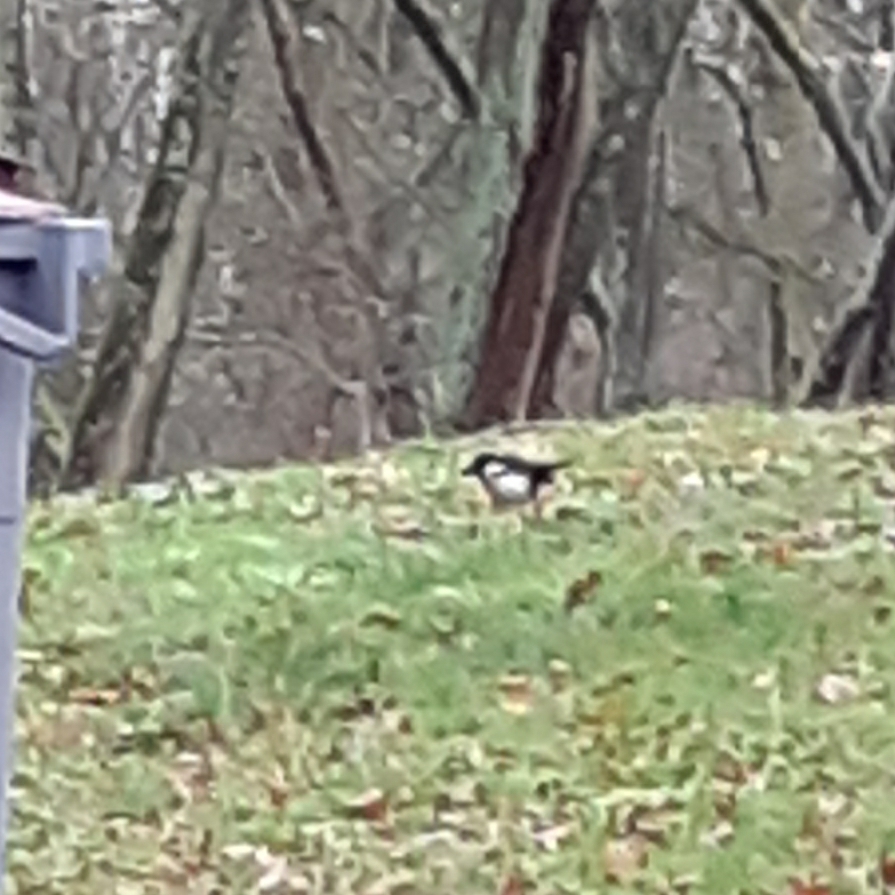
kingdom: Animalia
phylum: Chordata
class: Aves
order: Passeriformes
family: Corvidae
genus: Pica
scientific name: Pica pica
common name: Eurasian magpie
